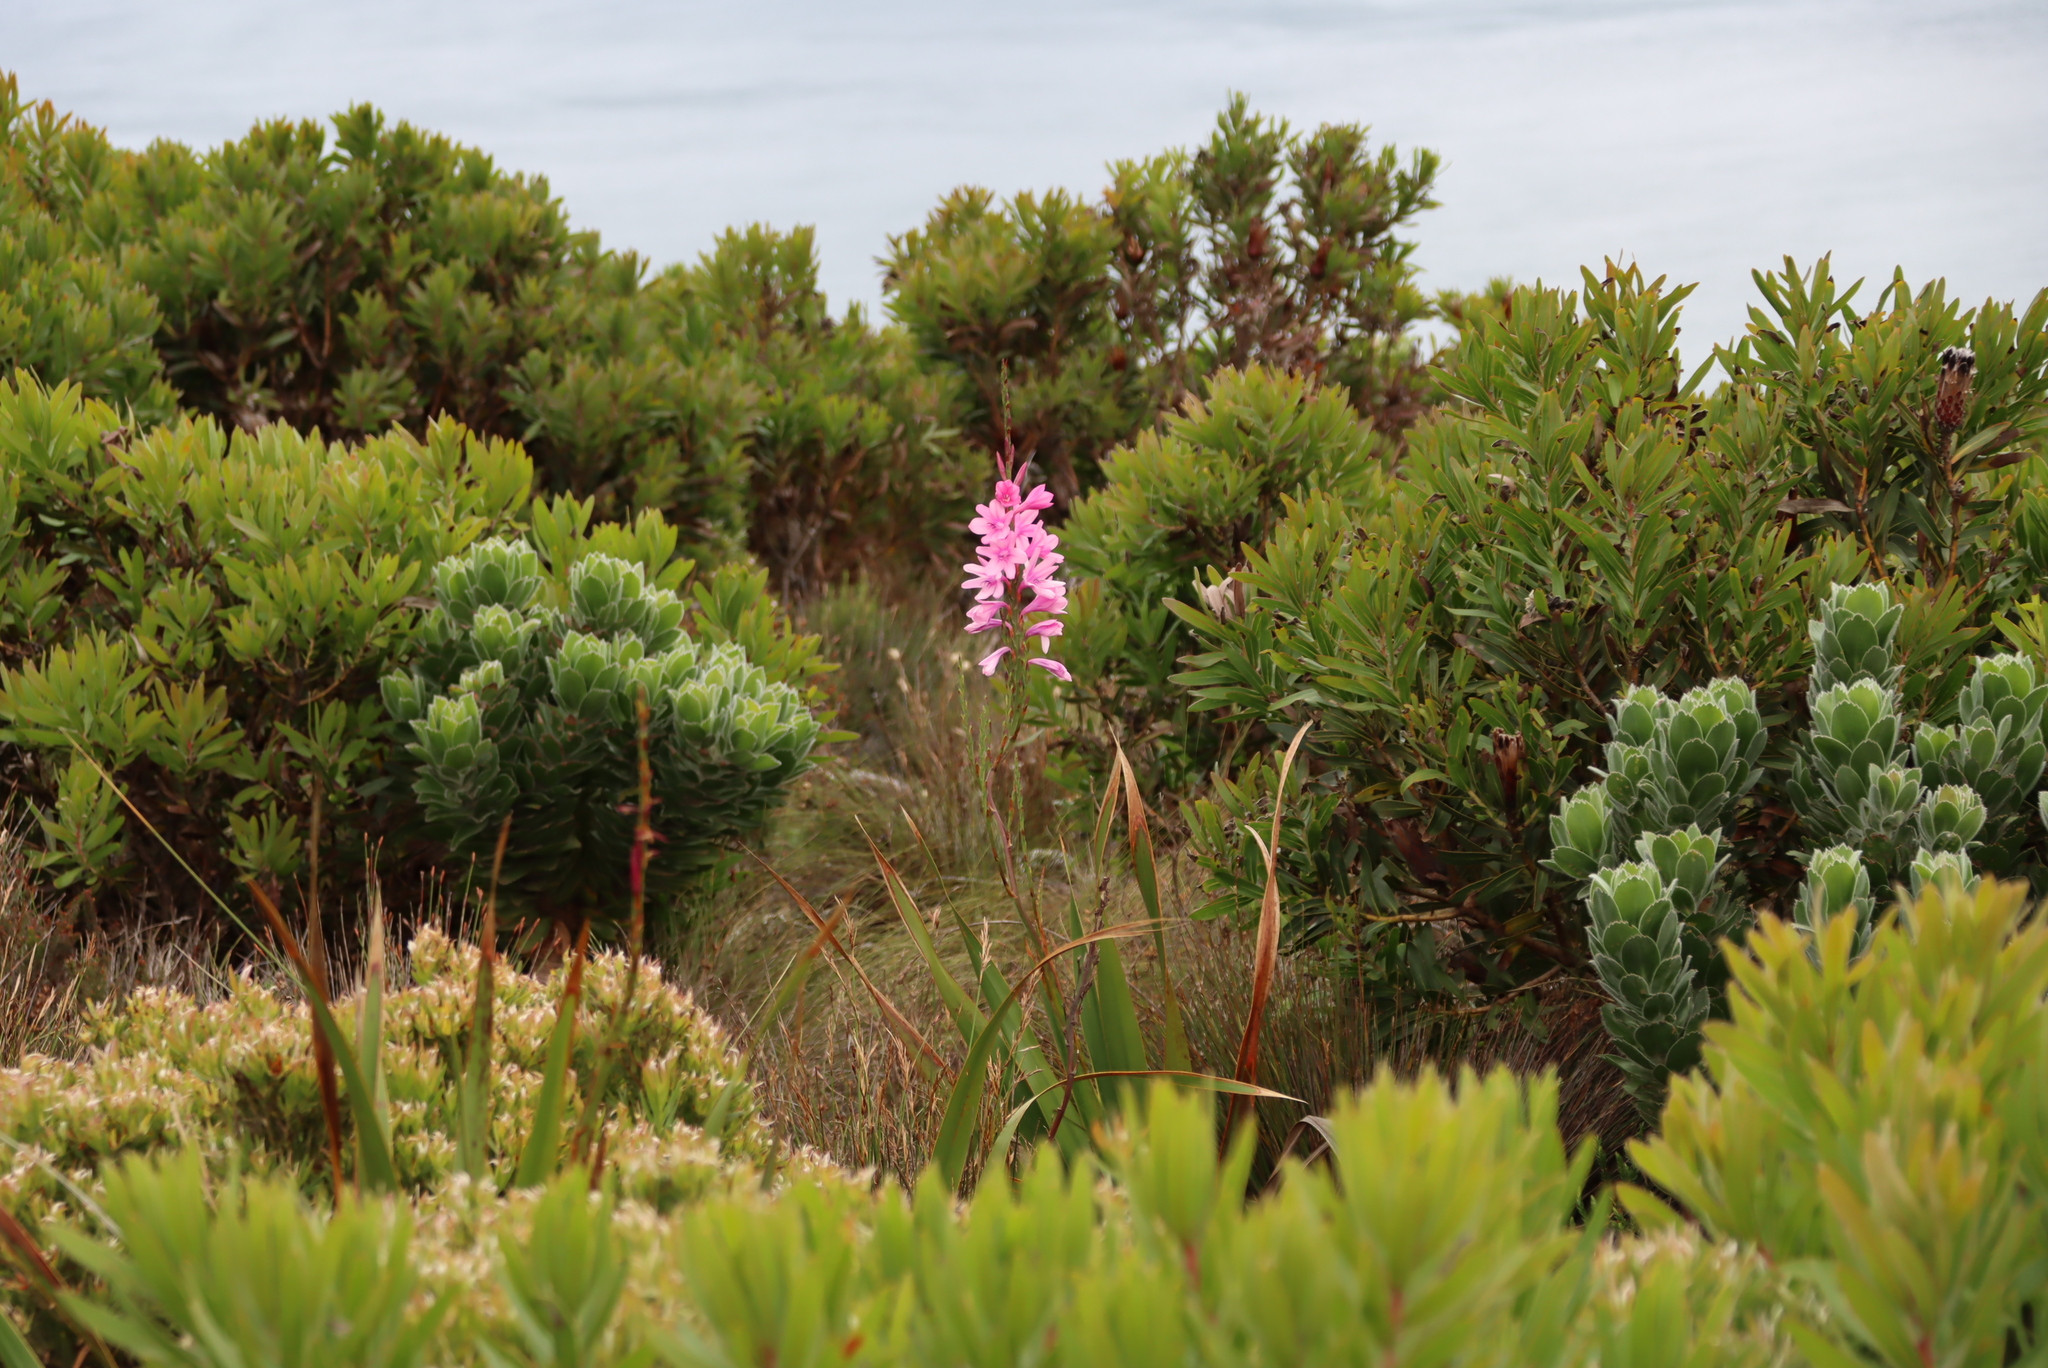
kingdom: Plantae
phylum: Tracheophyta
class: Liliopsida
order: Asparagales
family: Iridaceae
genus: Watsonia
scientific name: Watsonia borbonica
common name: Bugle-lily
